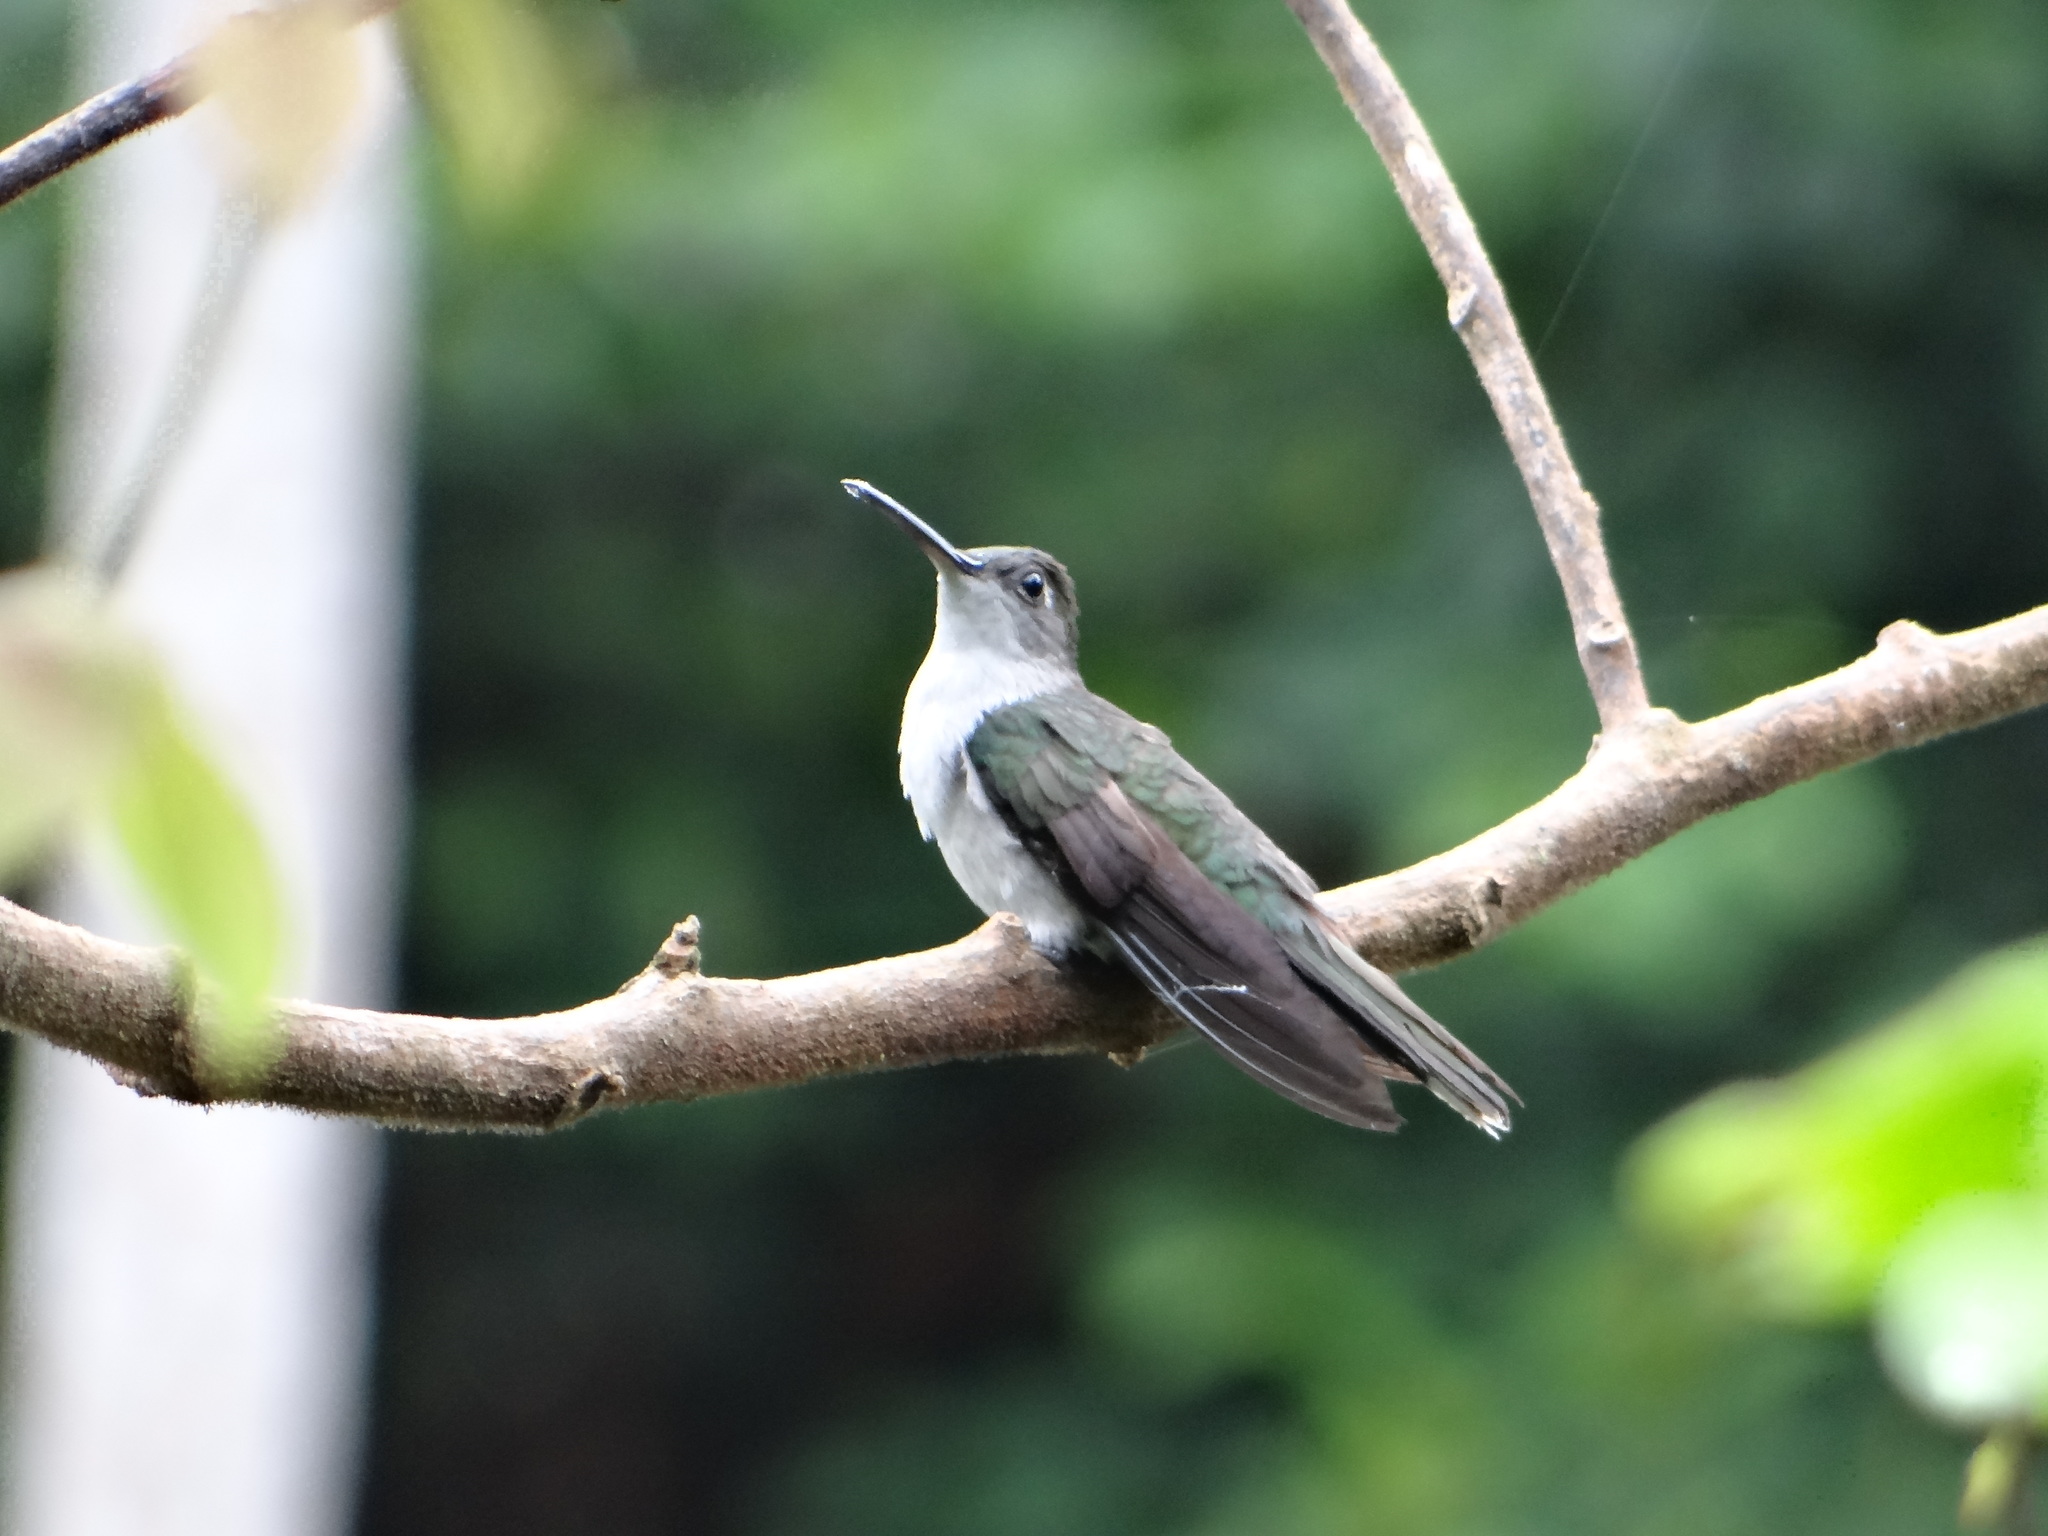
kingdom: Animalia
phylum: Chordata
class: Aves
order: Apodiformes
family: Trochilidae
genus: Campylopterus
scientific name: Campylopterus largipennis
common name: Gray-breasted sabrewing
